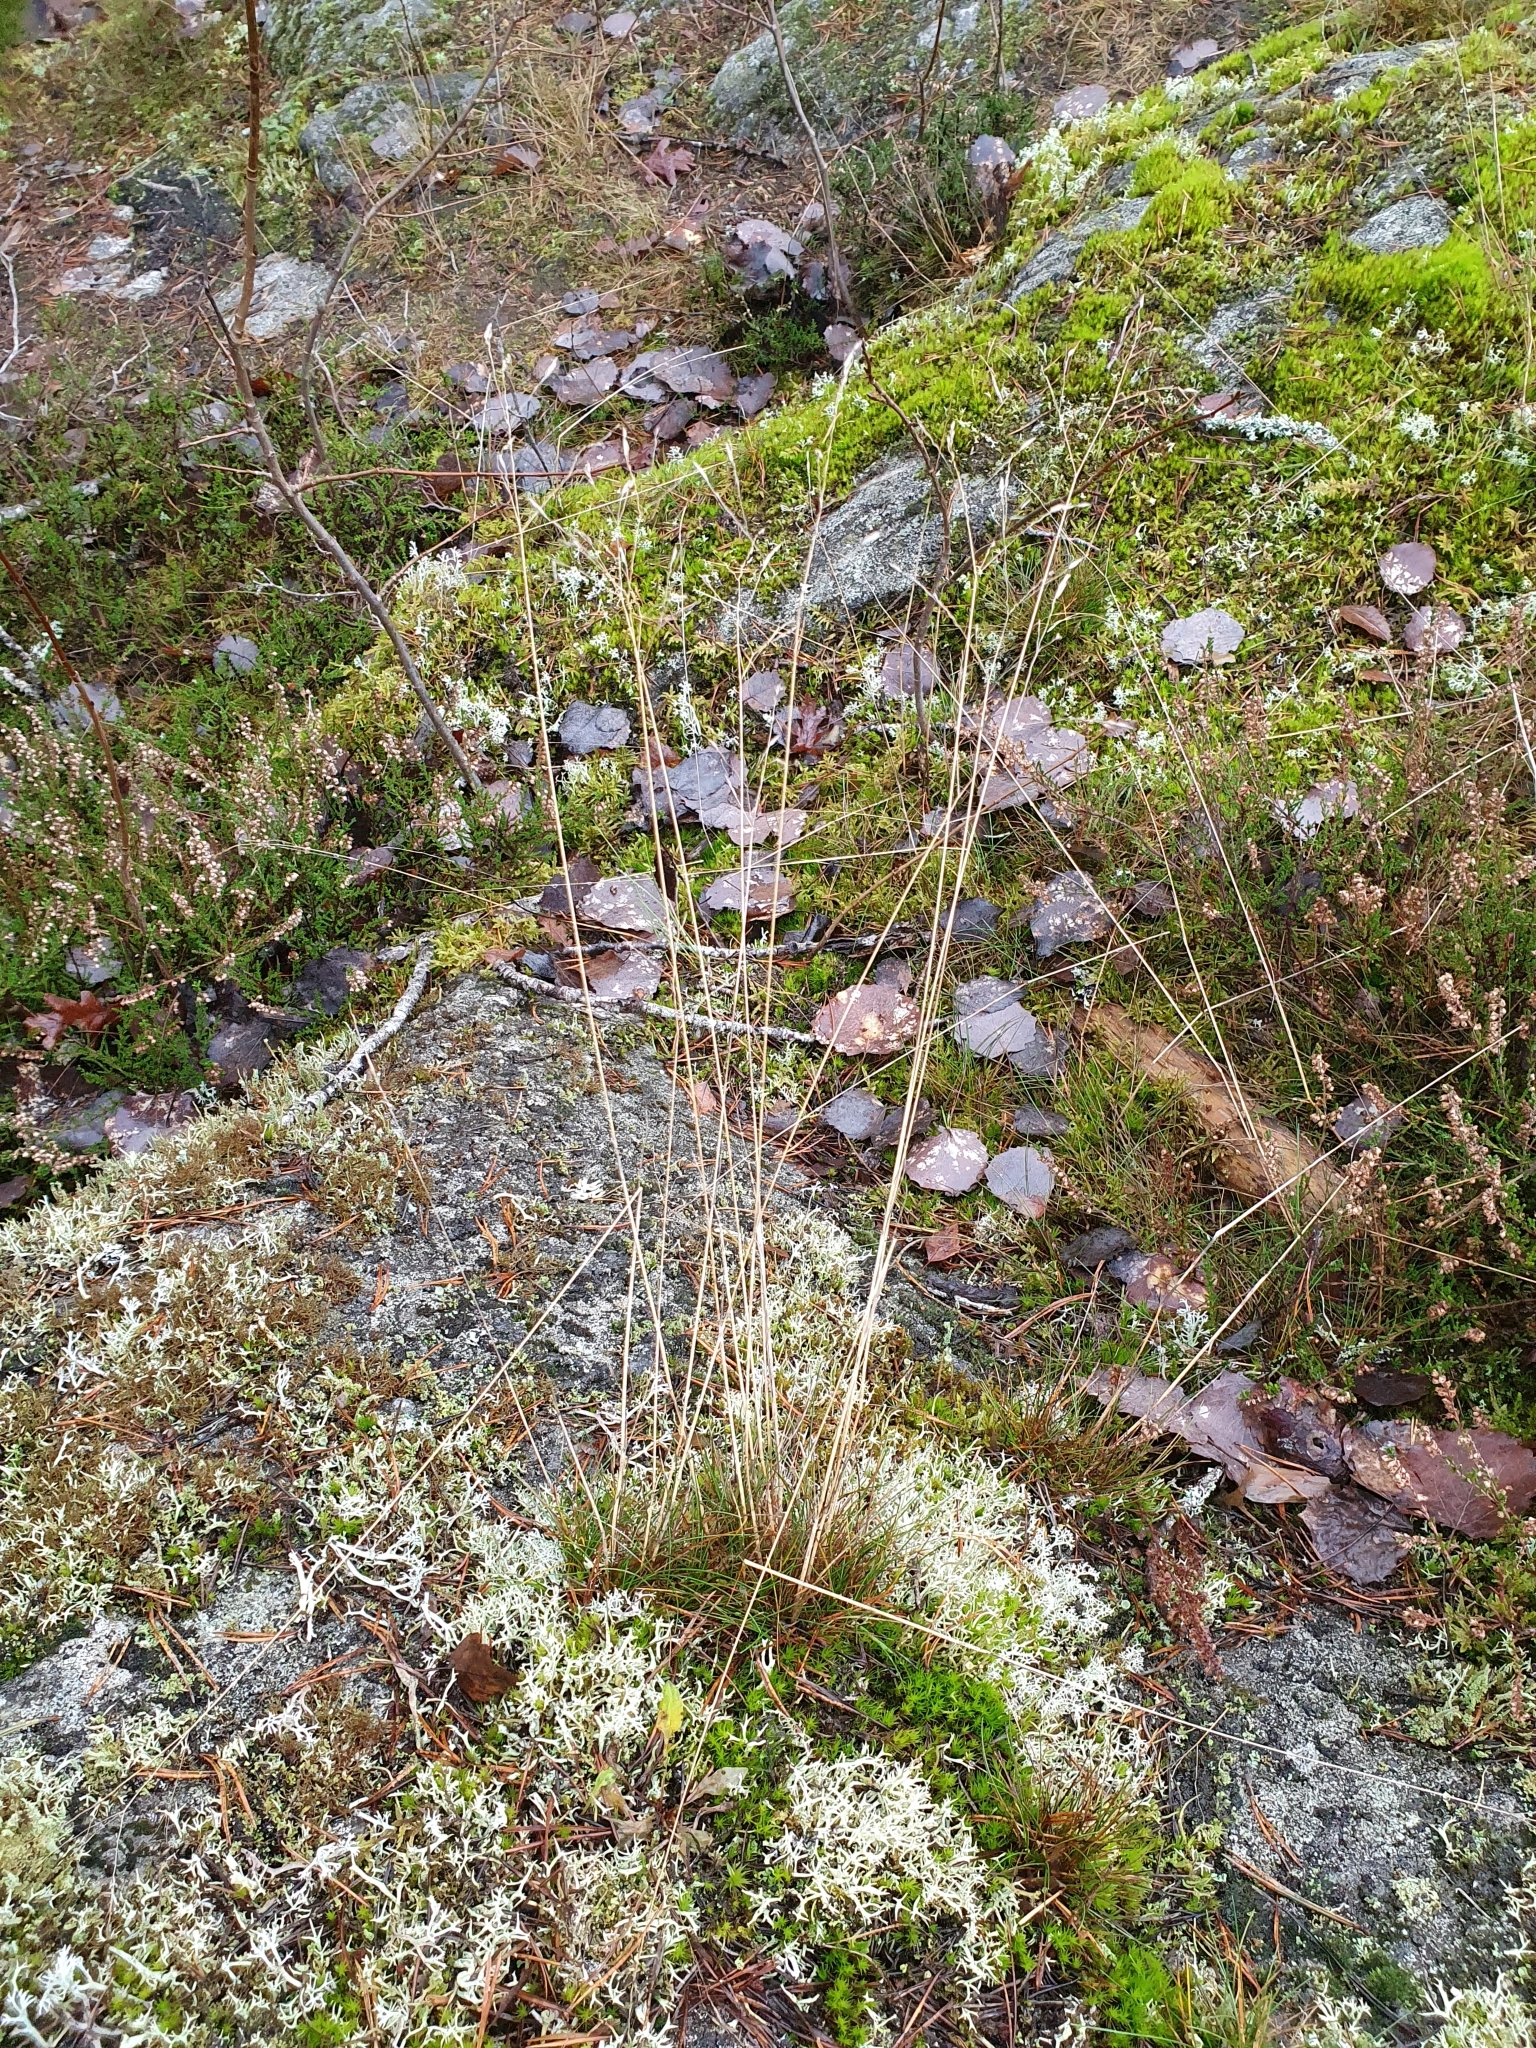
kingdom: Plantae
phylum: Tracheophyta
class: Liliopsida
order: Poales
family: Poaceae
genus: Avenella
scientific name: Avenella flexuosa
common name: Wavy hairgrass
